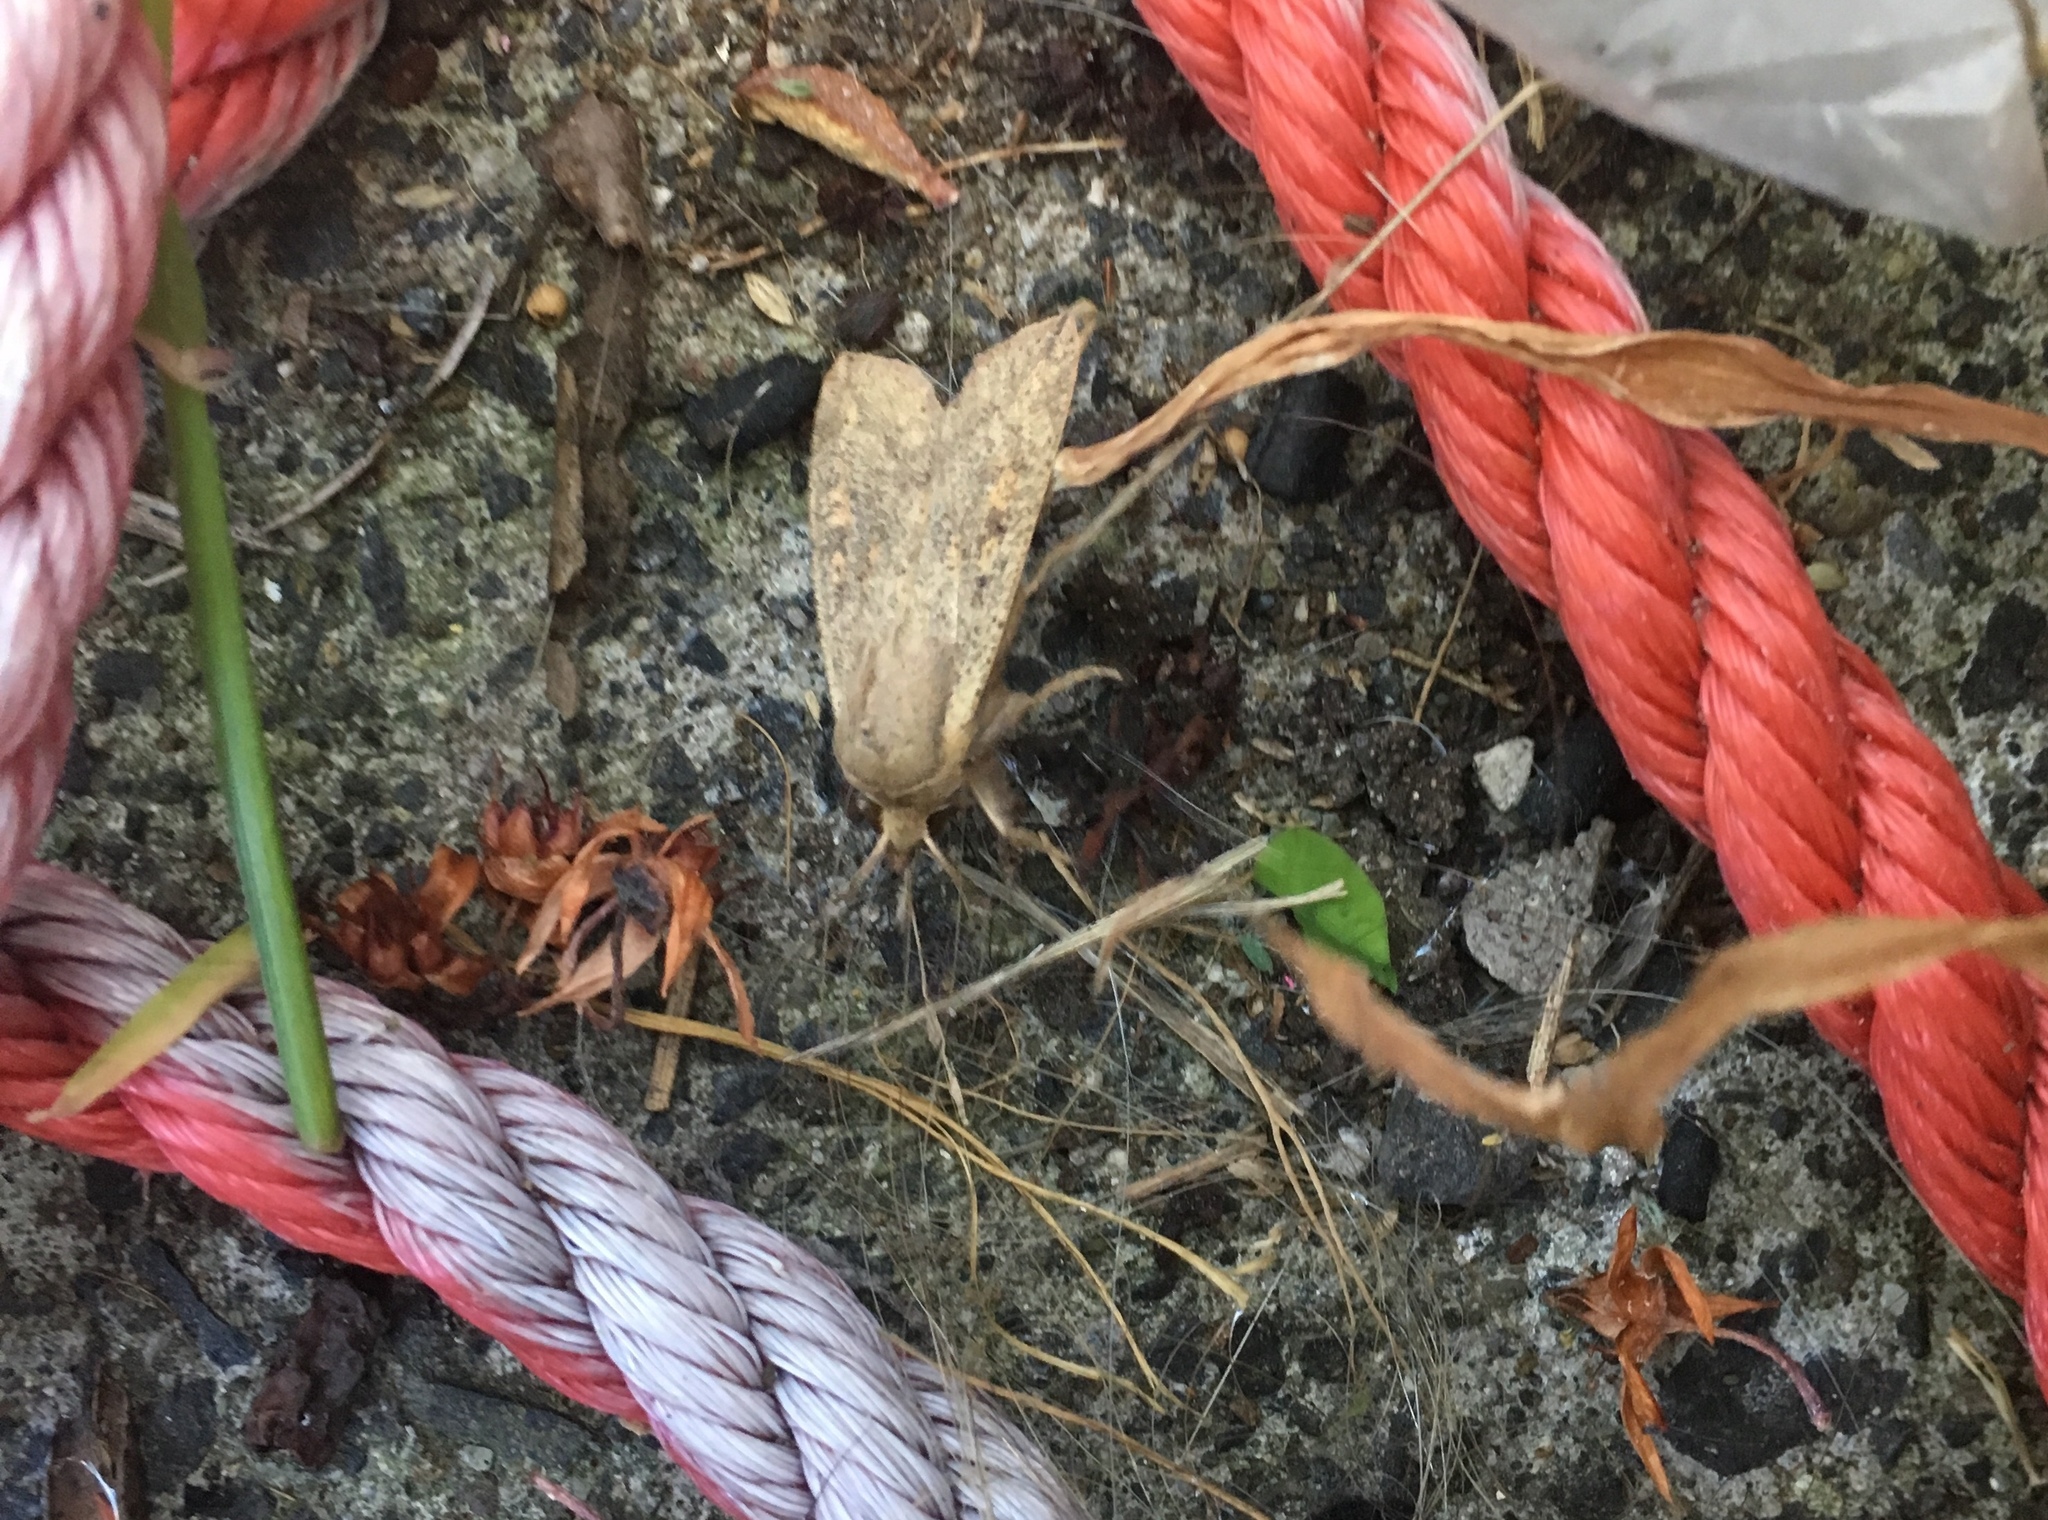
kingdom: Animalia
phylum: Arthropoda
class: Insecta
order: Lepidoptera
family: Noctuidae
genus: Mythimna
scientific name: Mythimna separata
